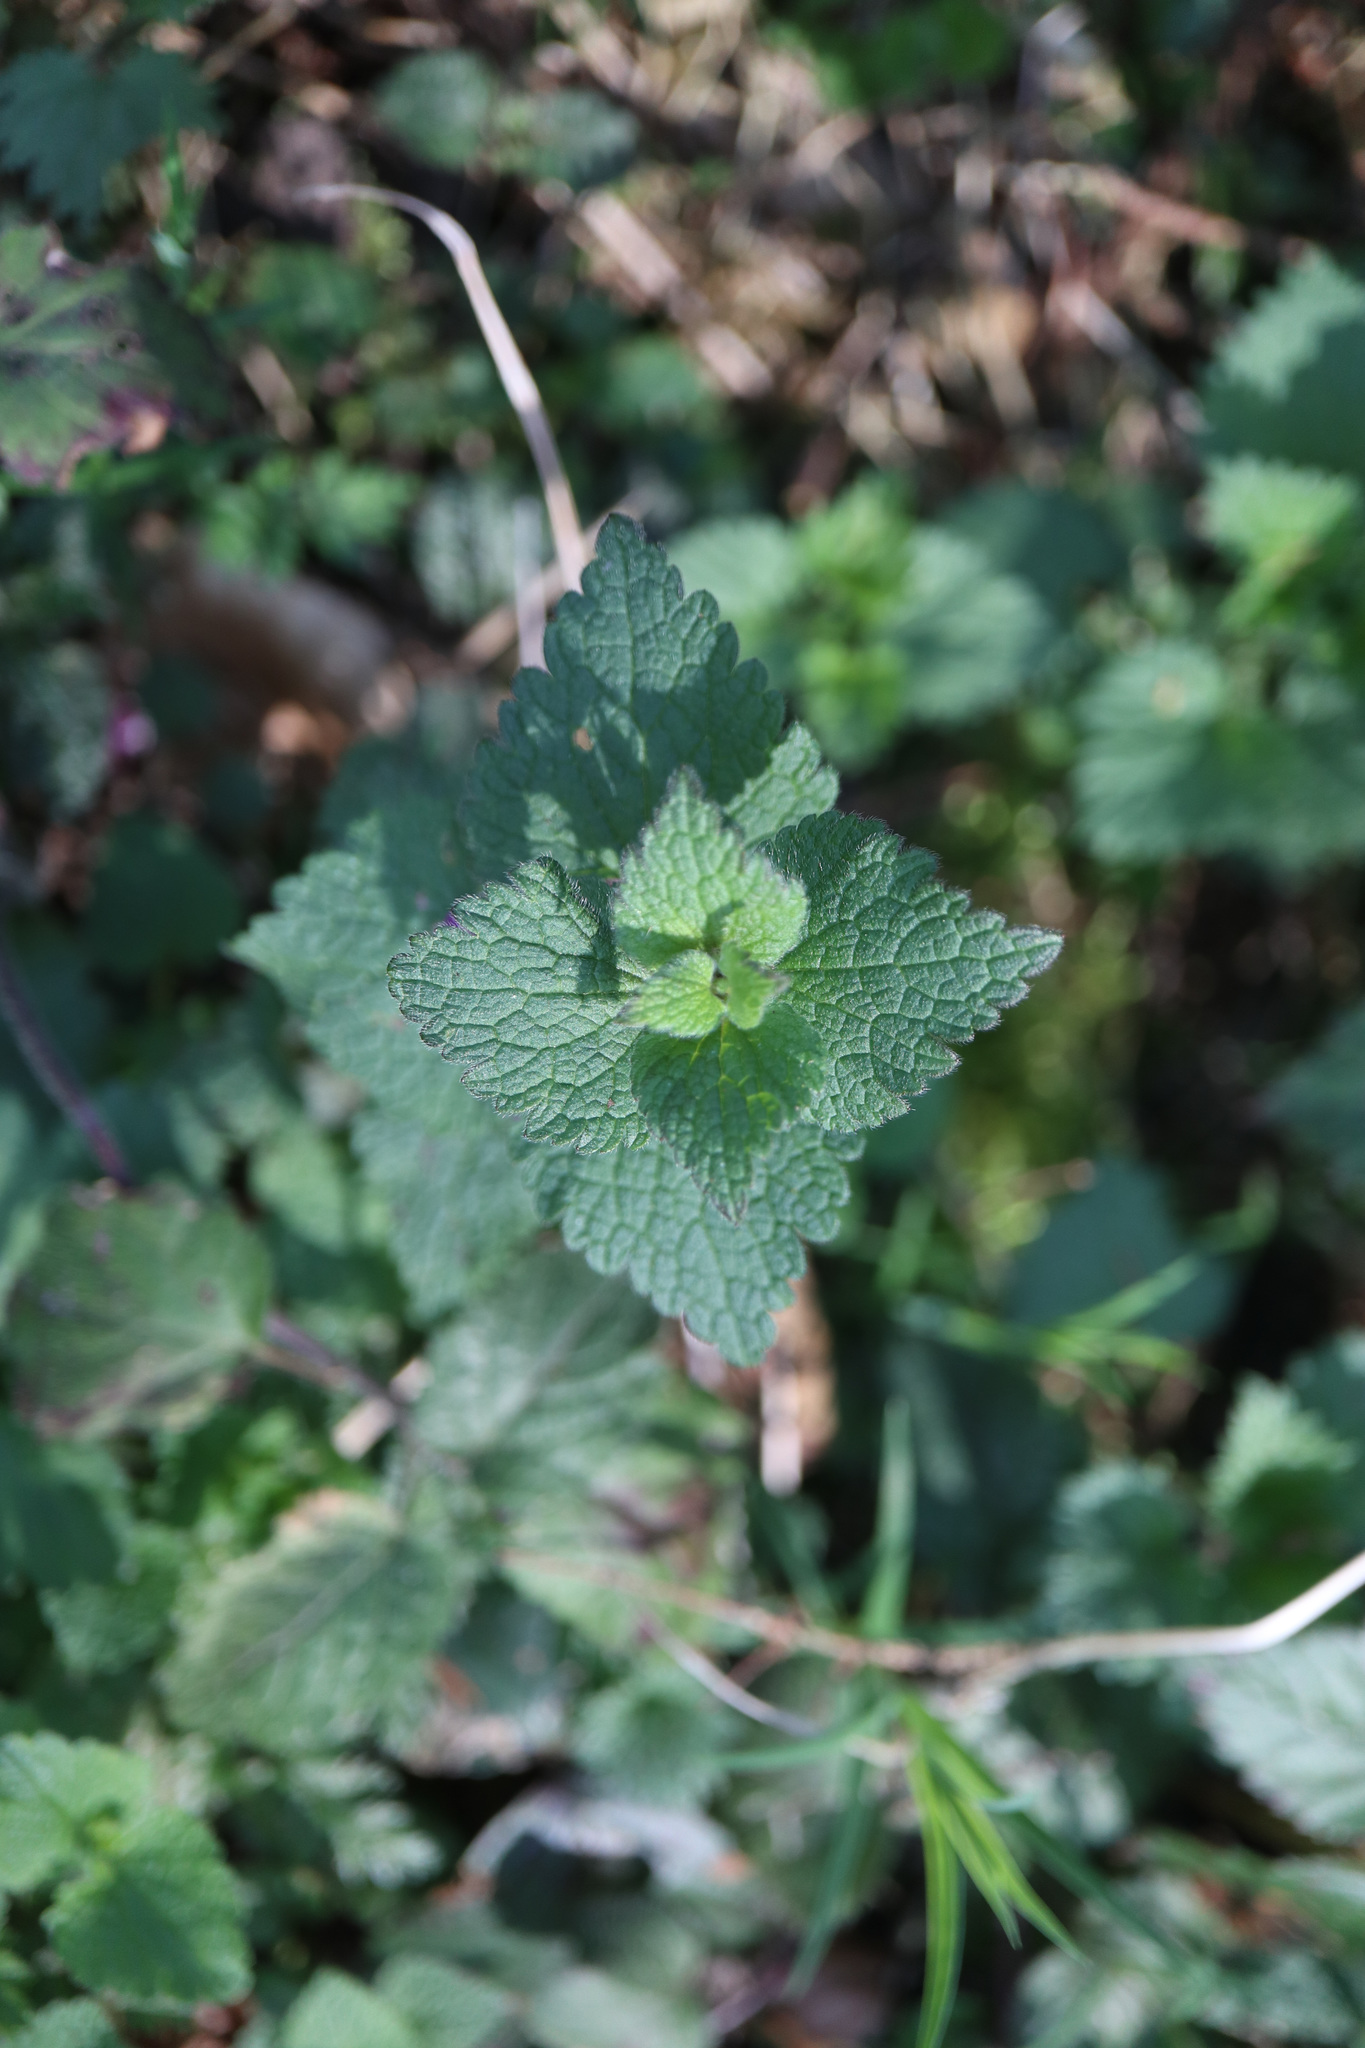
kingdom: Plantae
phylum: Tracheophyta
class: Magnoliopsida
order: Lamiales
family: Lamiaceae
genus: Lamium
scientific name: Lamium maculatum
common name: Spotted dead-nettle
